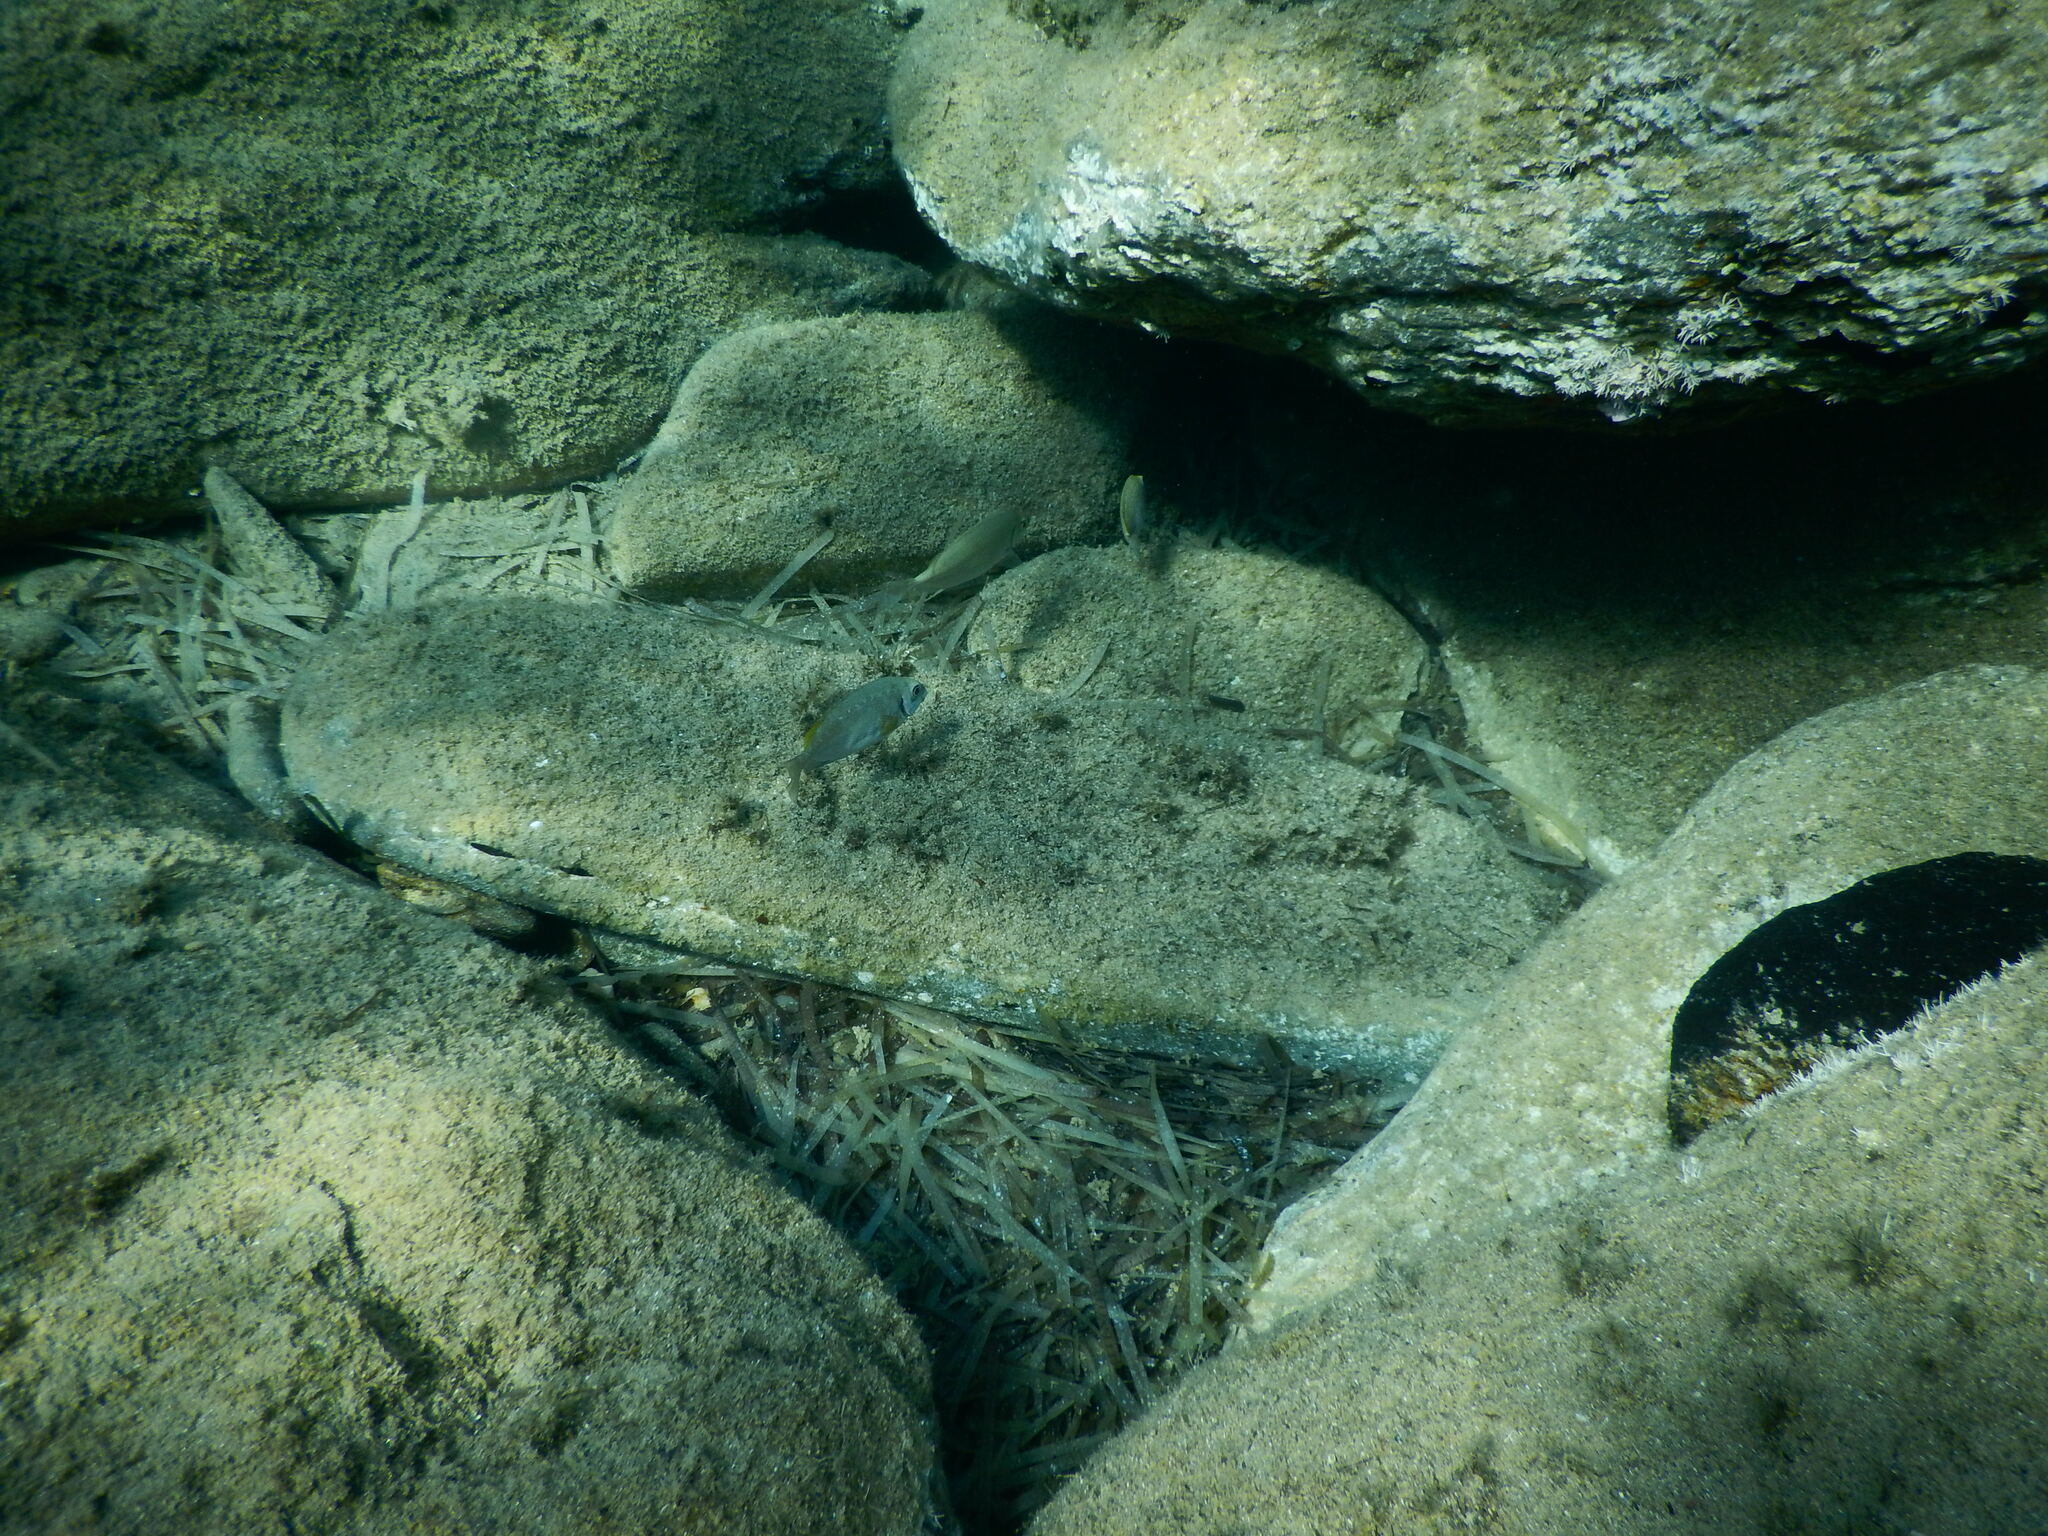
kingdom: Animalia
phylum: Chordata
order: Perciformes
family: Siganidae
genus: Siganus
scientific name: Siganus luridus
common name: Dusky spinefoot
